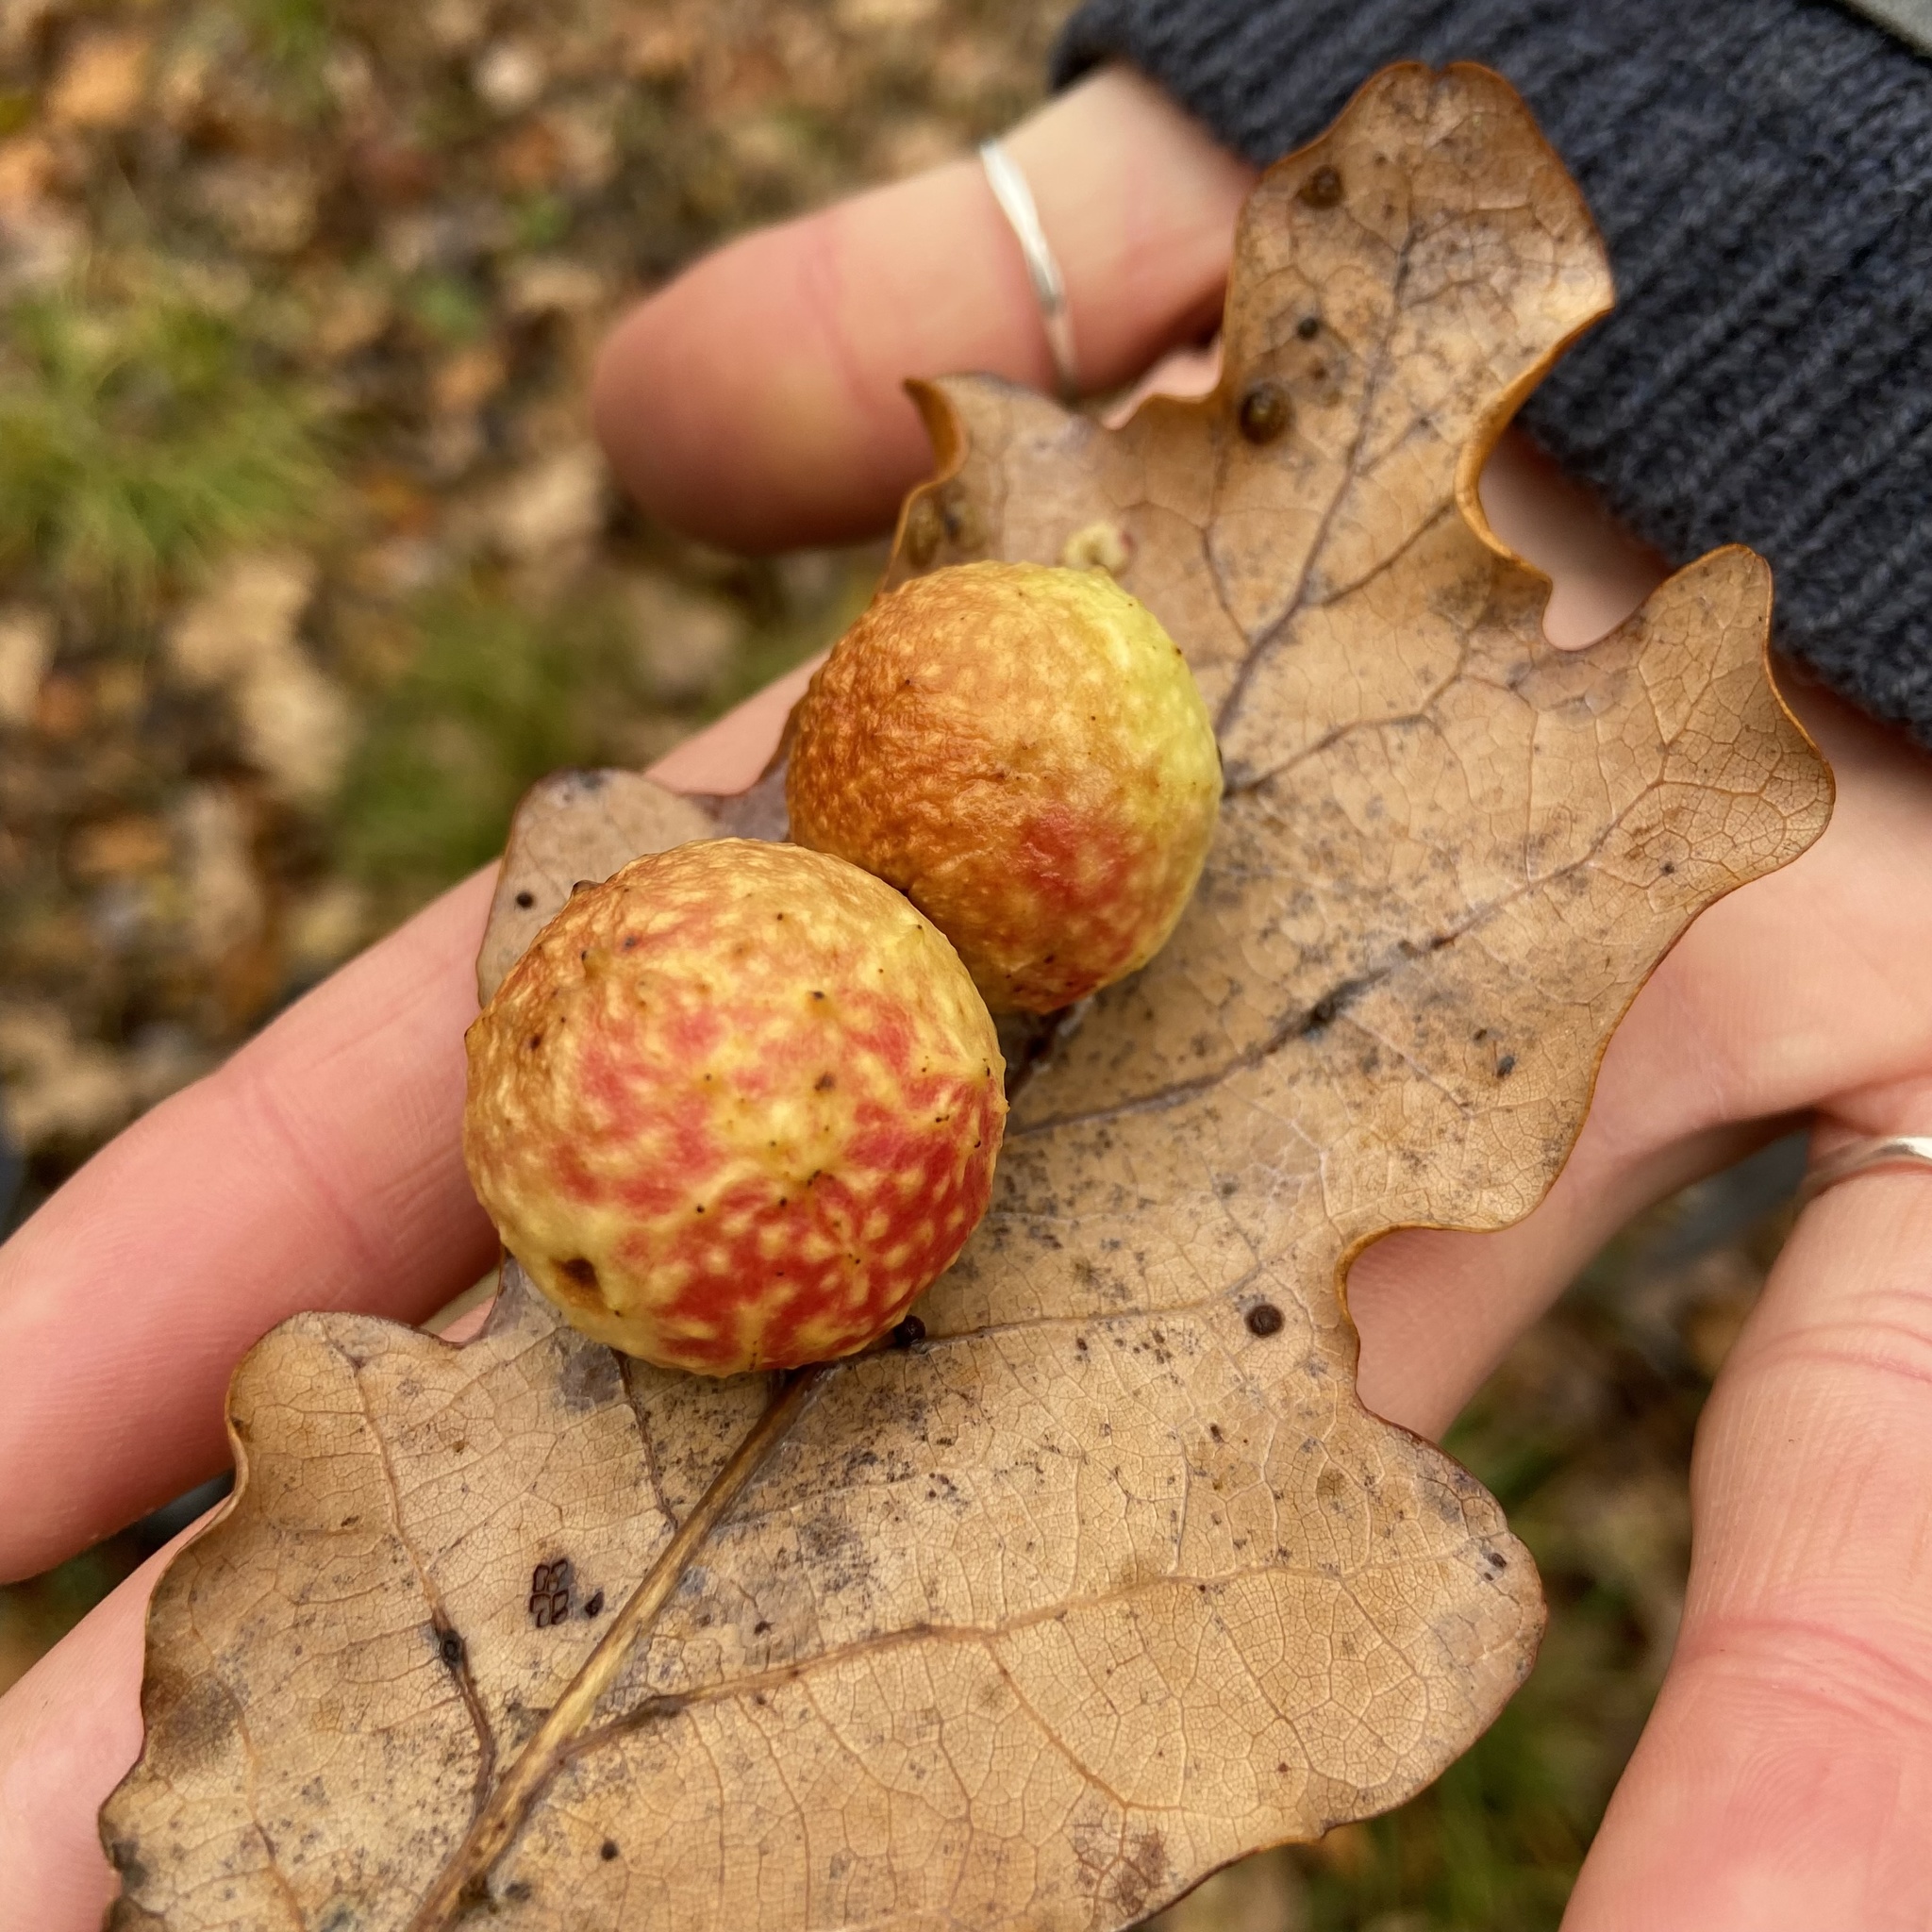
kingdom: Animalia
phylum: Arthropoda
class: Insecta
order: Hymenoptera
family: Cynipidae
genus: Cynips
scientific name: Cynips quercusfolii
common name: Cherry gall
